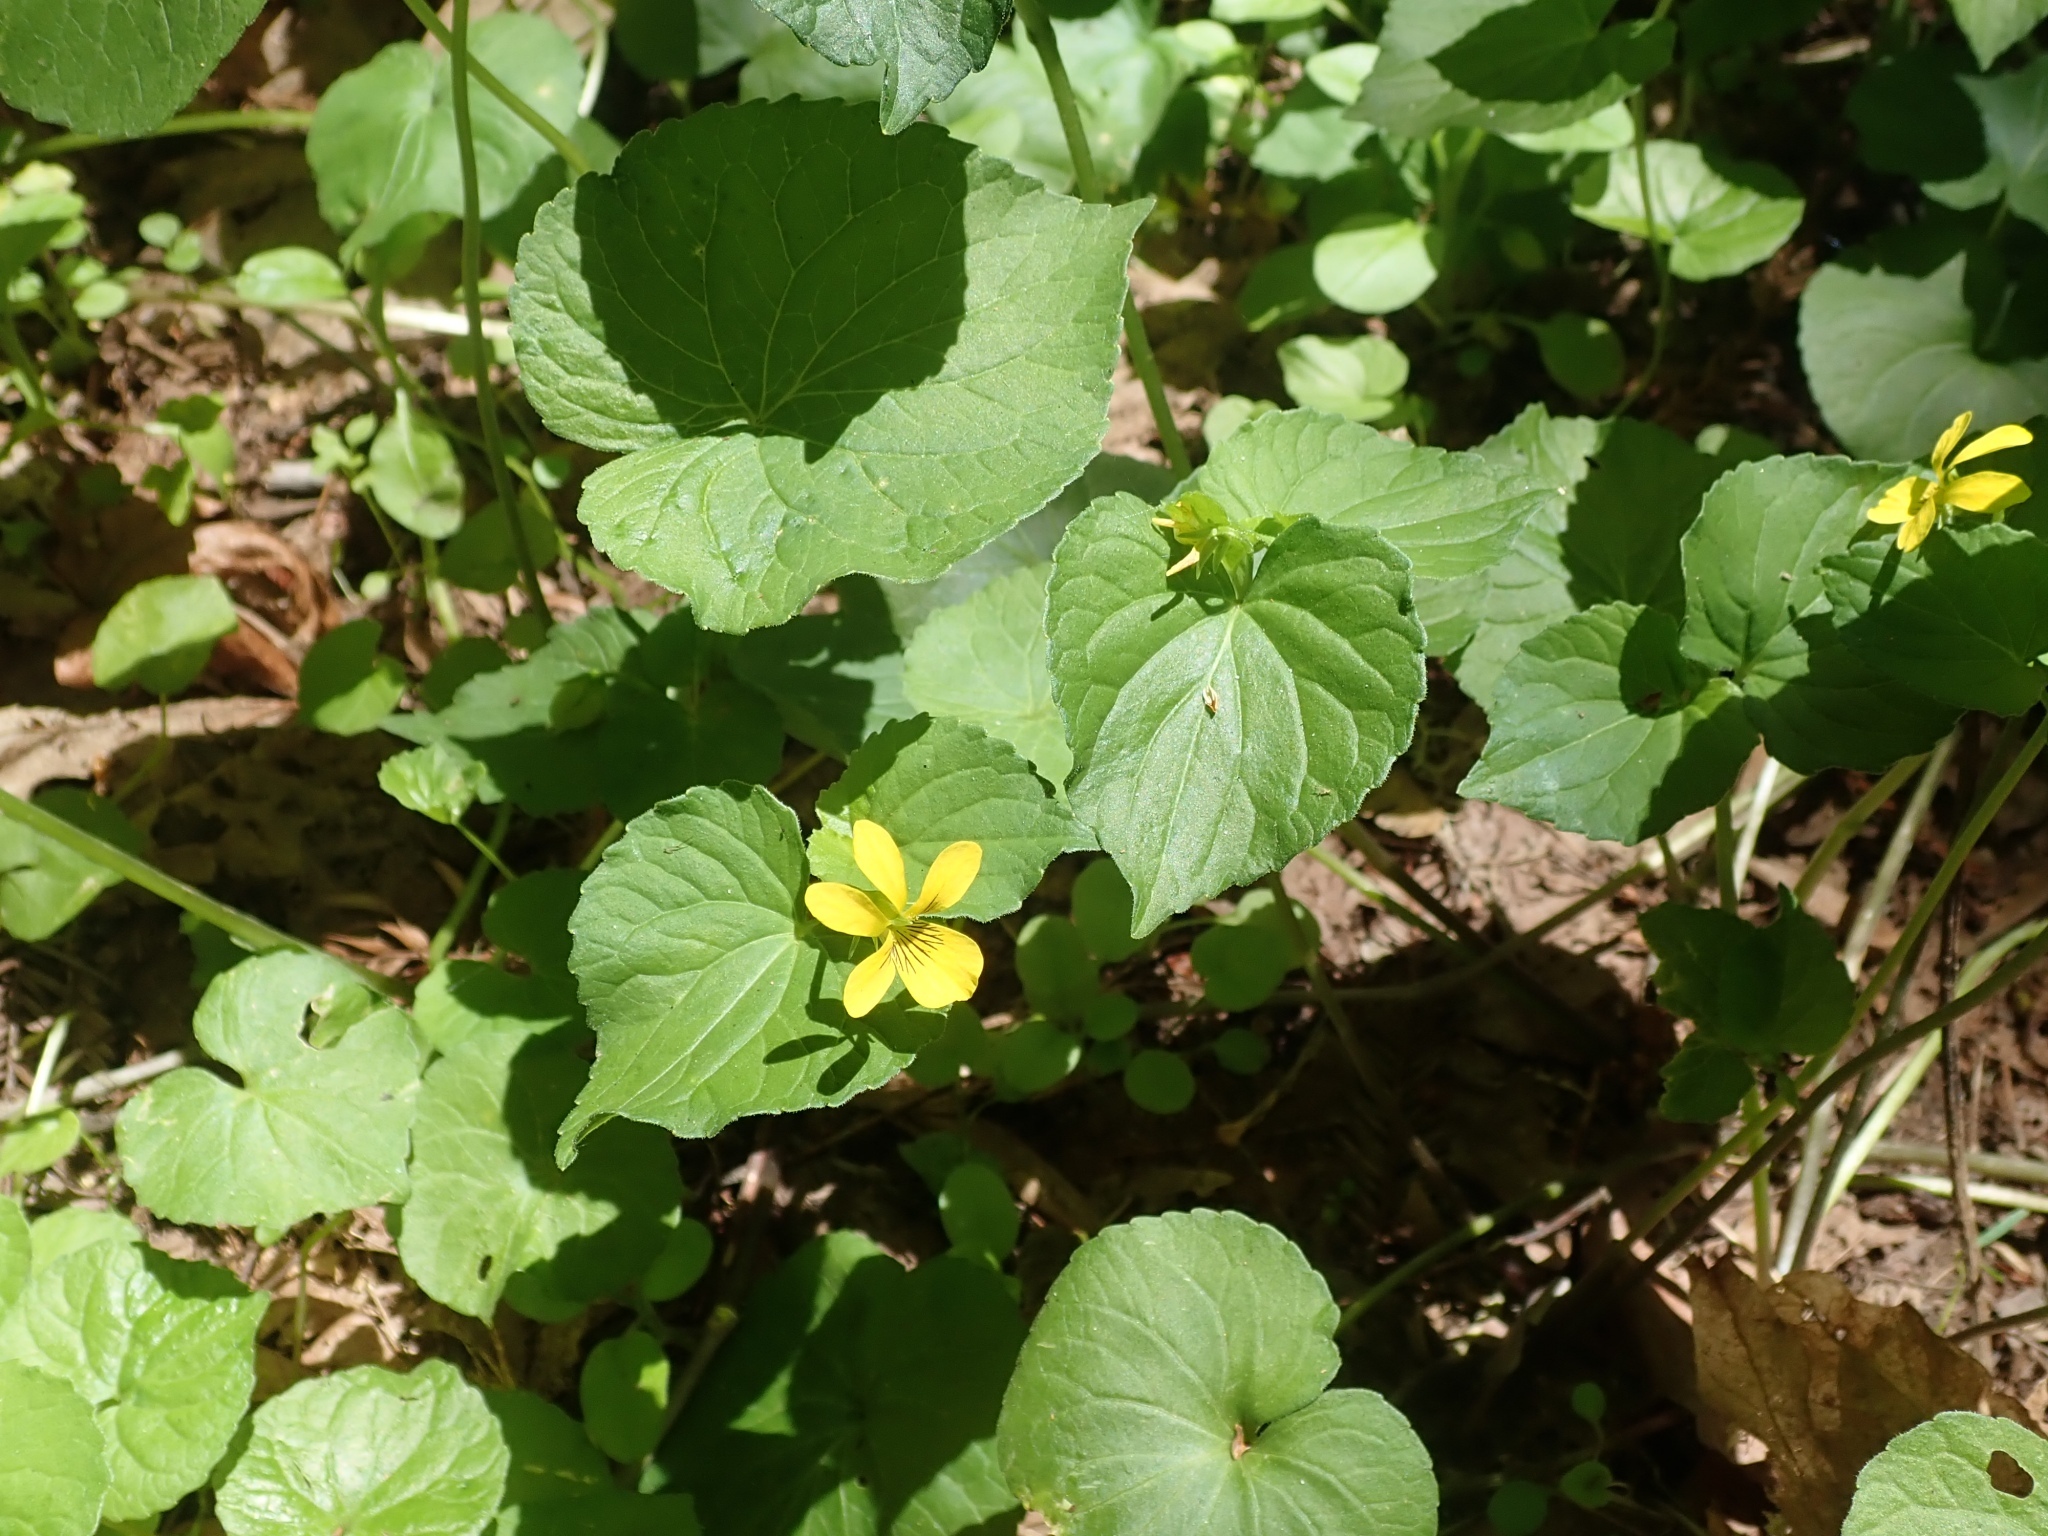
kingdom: Plantae
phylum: Tracheophyta
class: Magnoliopsida
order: Malpighiales
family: Violaceae
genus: Viola
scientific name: Viola glabella
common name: Stream violet
